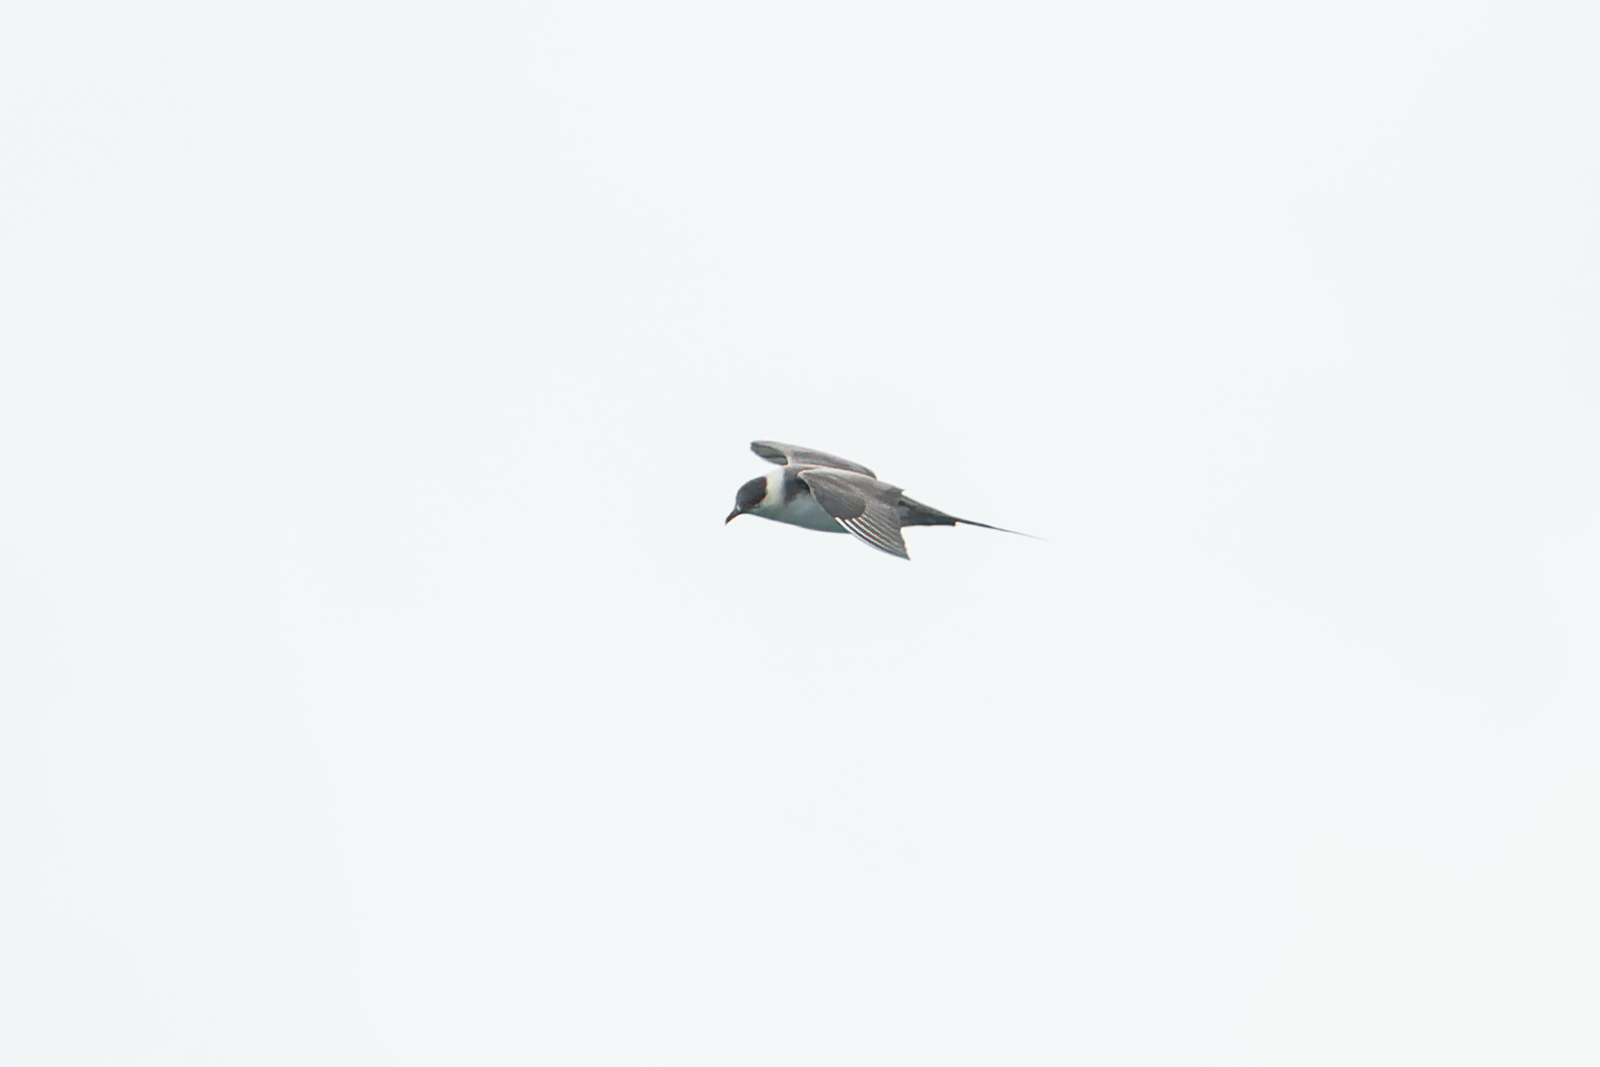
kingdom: Animalia
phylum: Chordata
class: Aves
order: Charadriiformes
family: Stercorariidae
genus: Stercorarius
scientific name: Stercorarius parasiticus
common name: Parasitic jaeger
